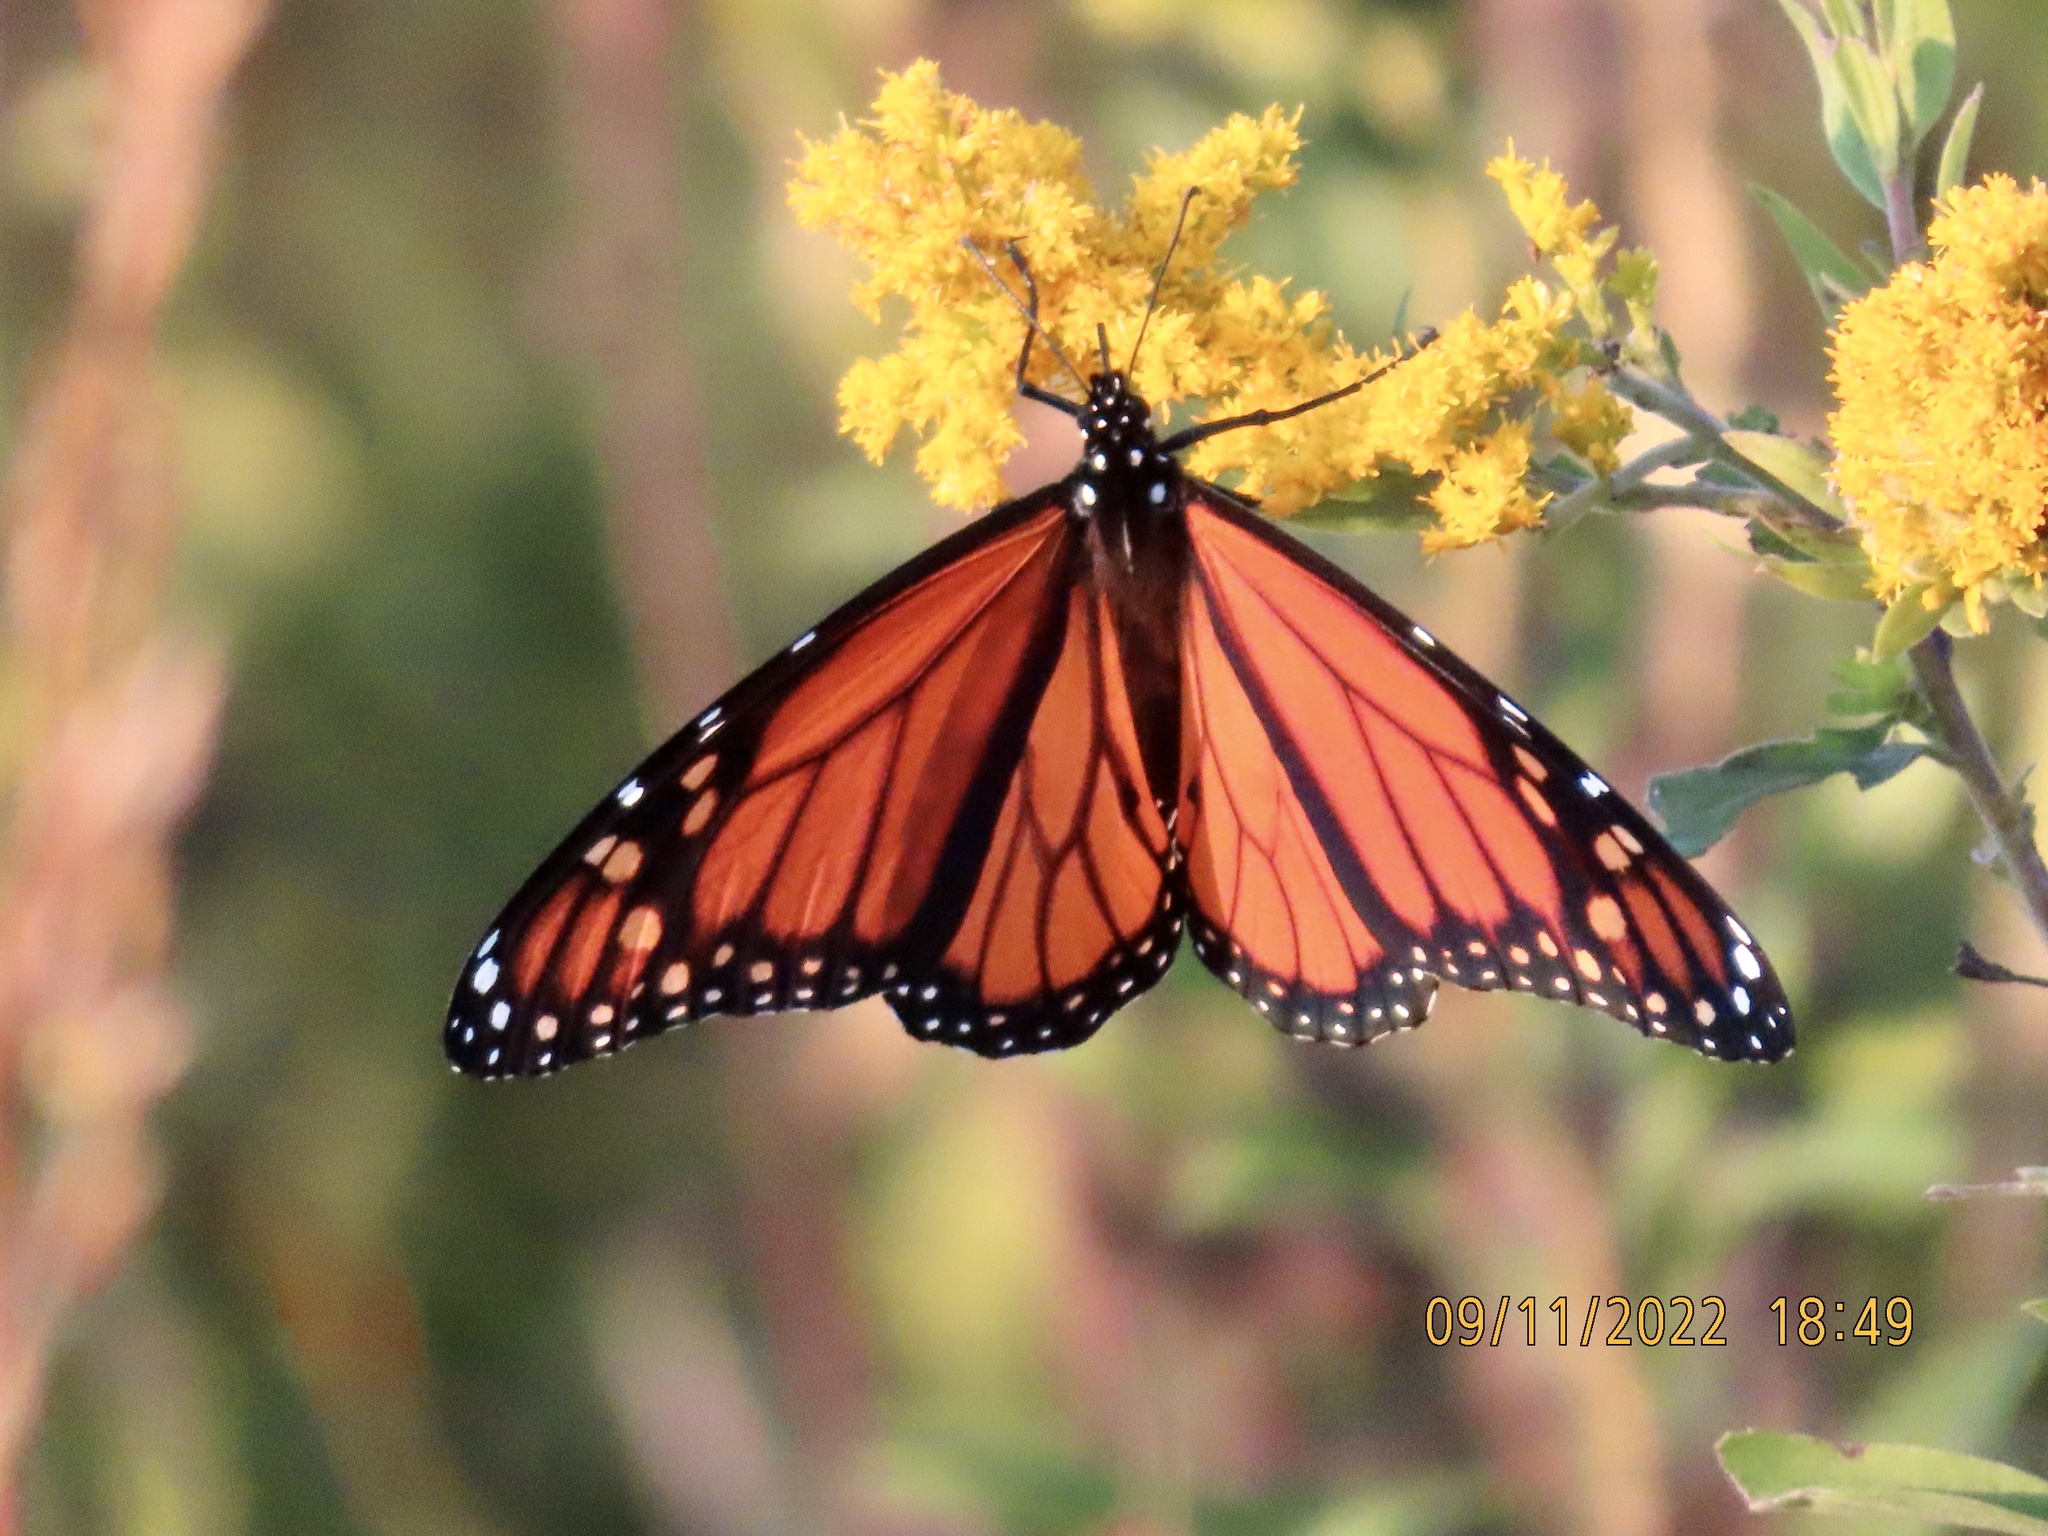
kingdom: Animalia
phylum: Arthropoda
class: Insecta
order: Lepidoptera
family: Nymphalidae
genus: Danaus
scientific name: Danaus plexippus
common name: Monarch
